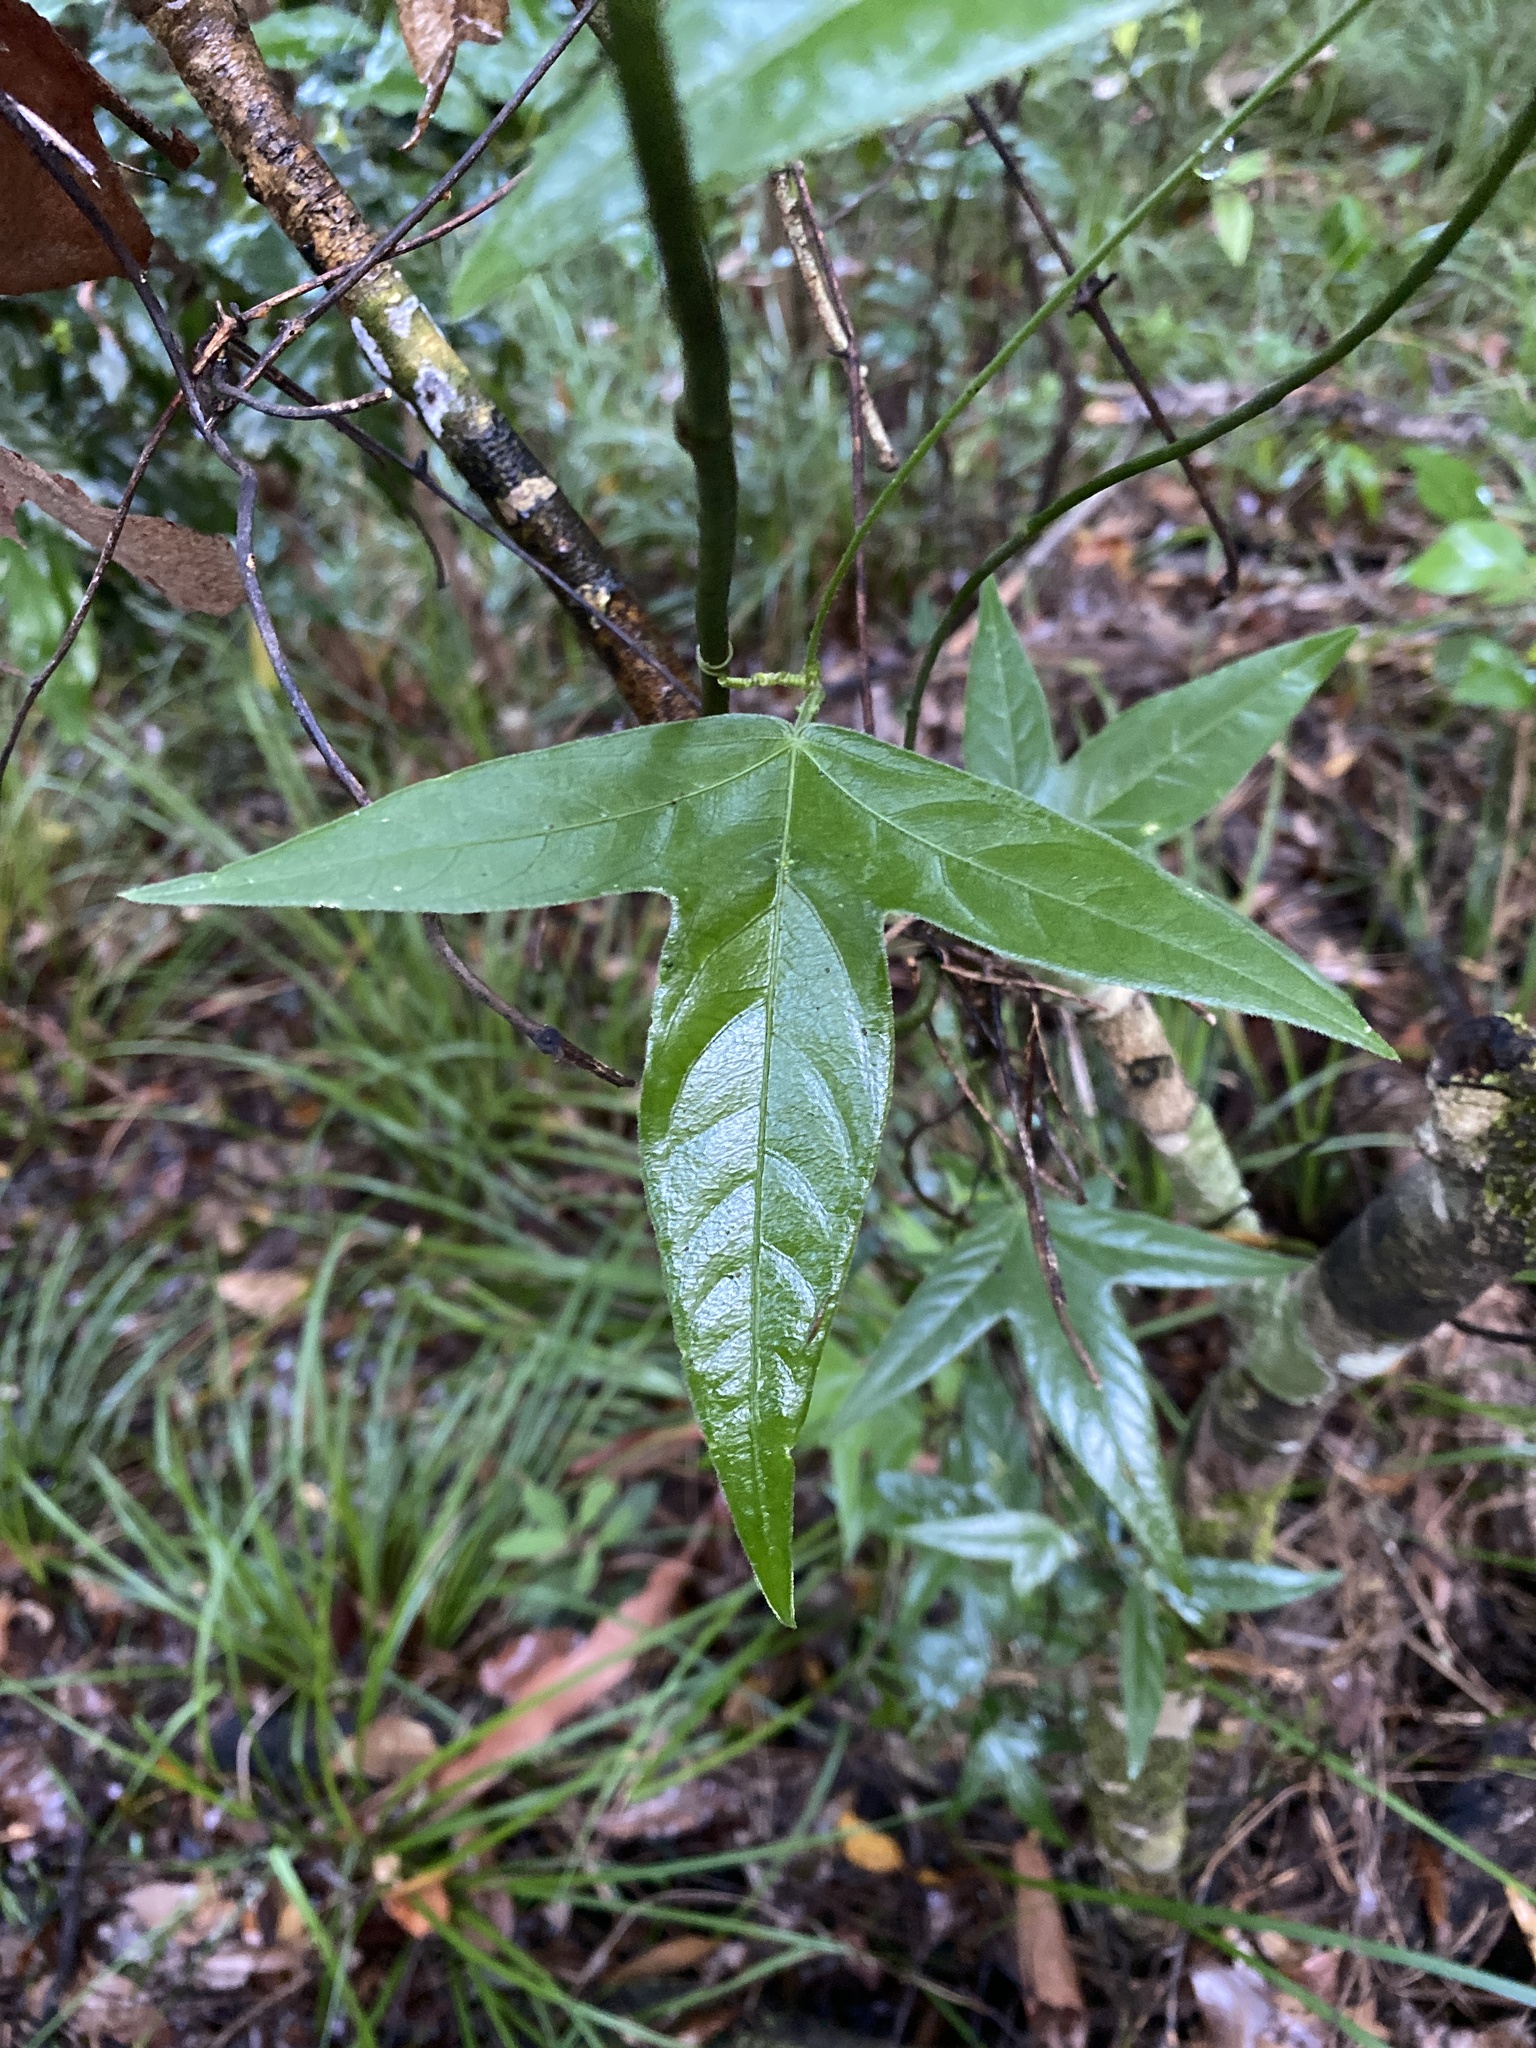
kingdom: Plantae
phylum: Tracheophyta
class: Magnoliopsida
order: Malpighiales
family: Passifloraceae
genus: Passiflora
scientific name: Passiflora suberosa
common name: Wild passionfruit
